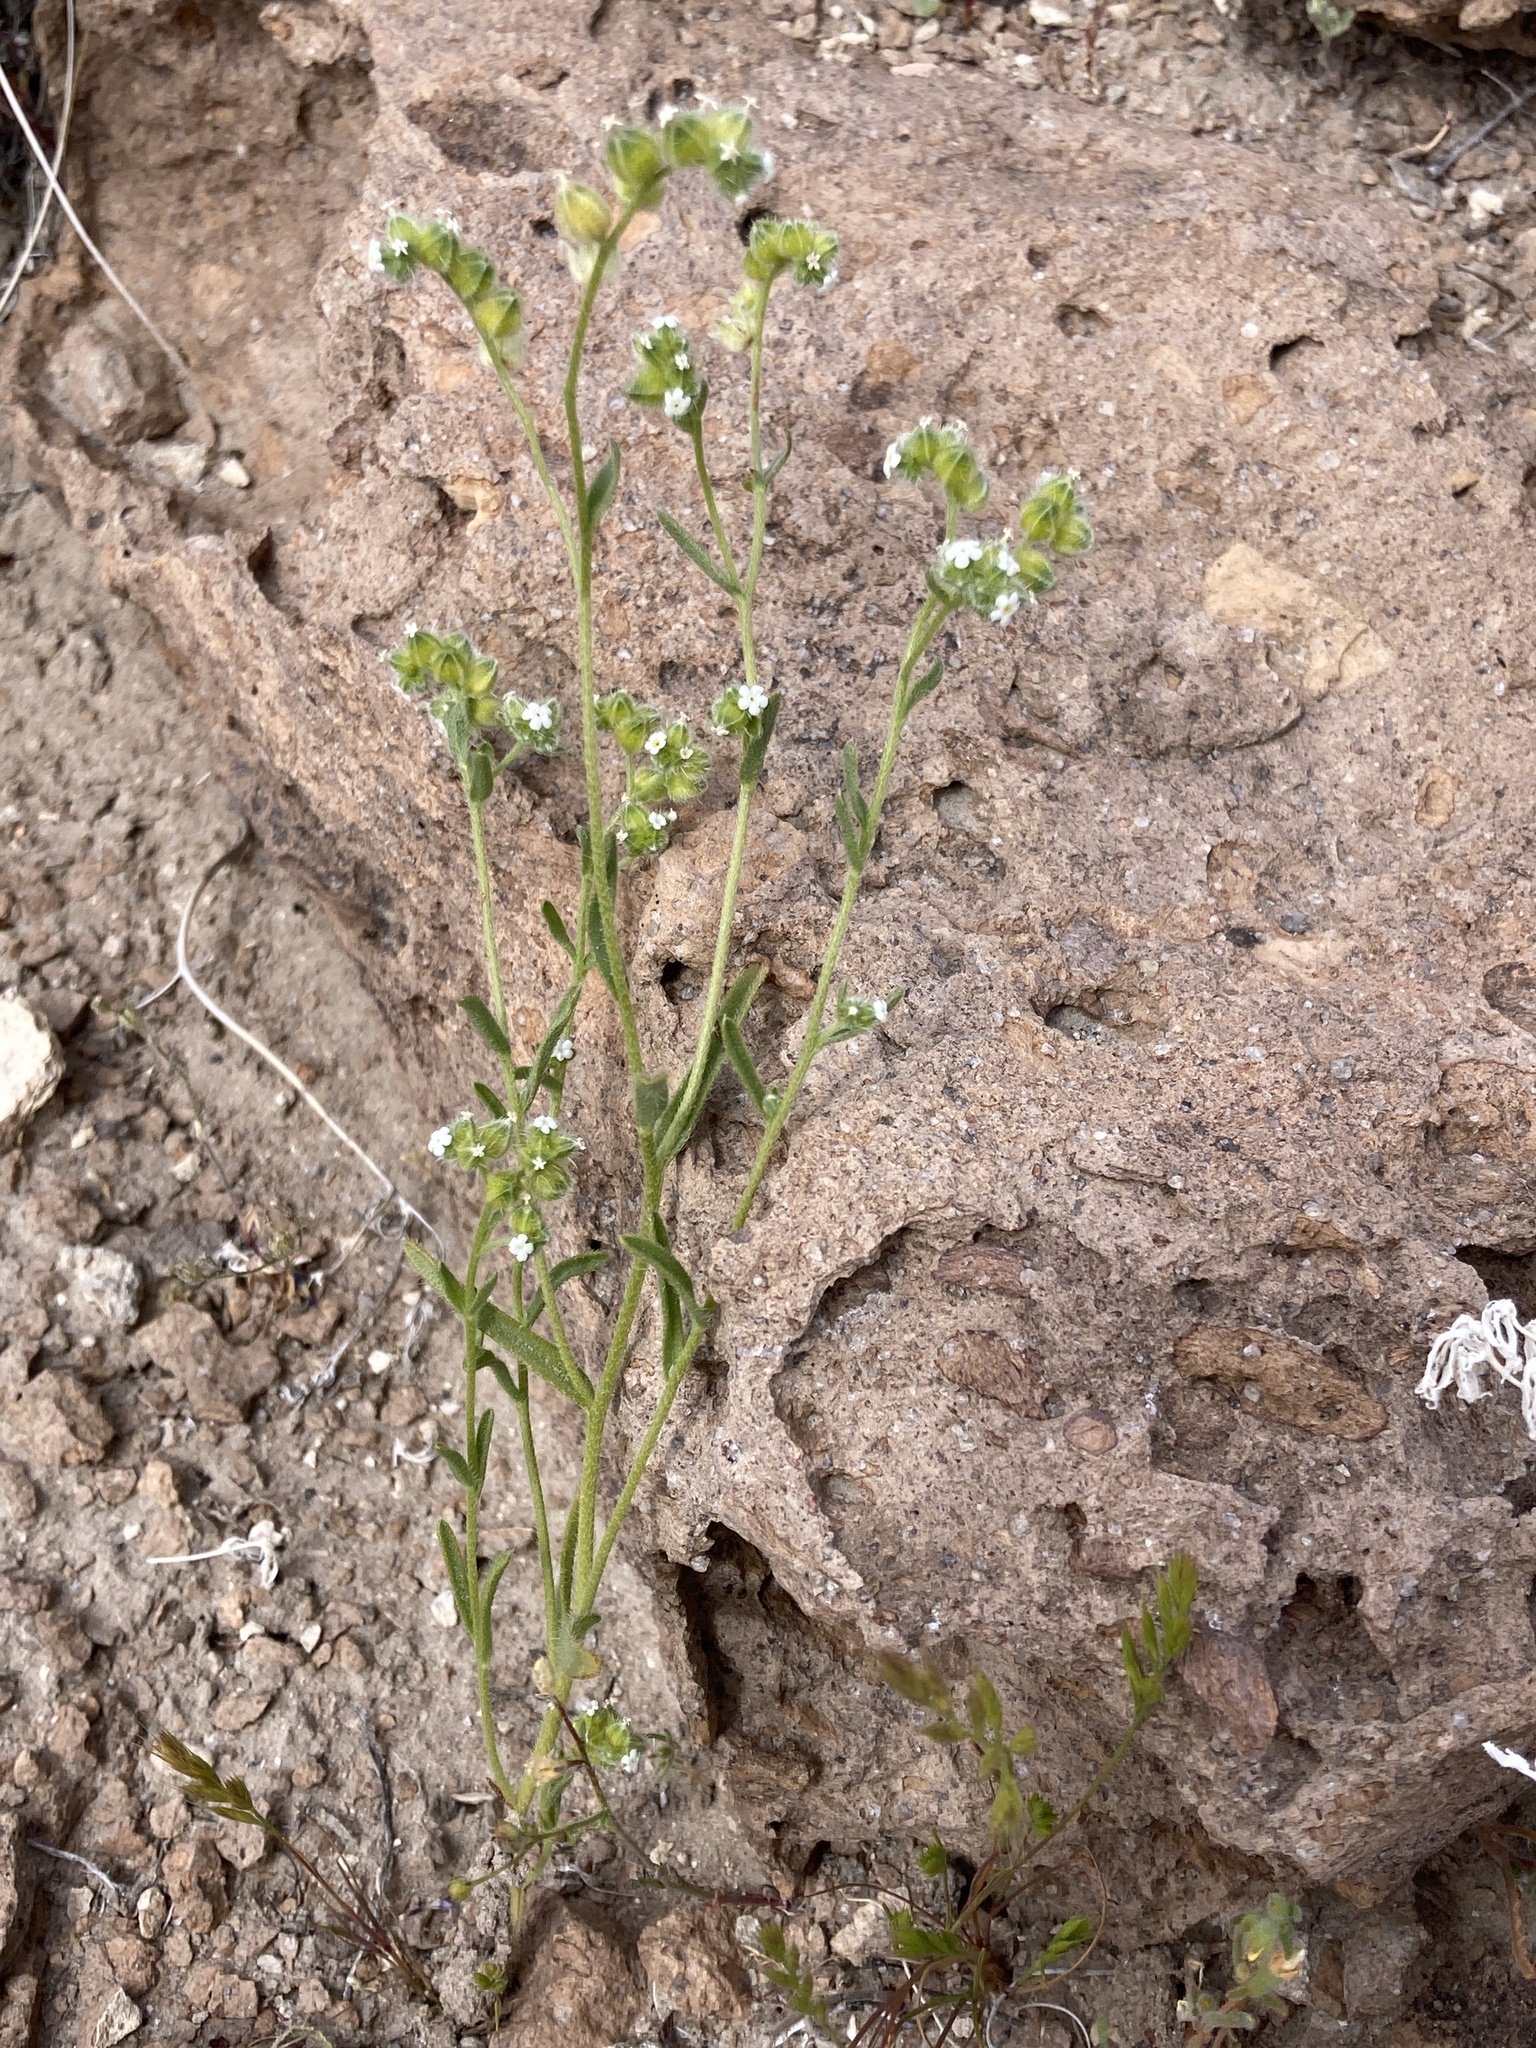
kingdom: Plantae
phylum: Tracheophyta
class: Magnoliopsida
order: Boraginales
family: Boraginaceae
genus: Cryptantha
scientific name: Cryptantha pterocarya
